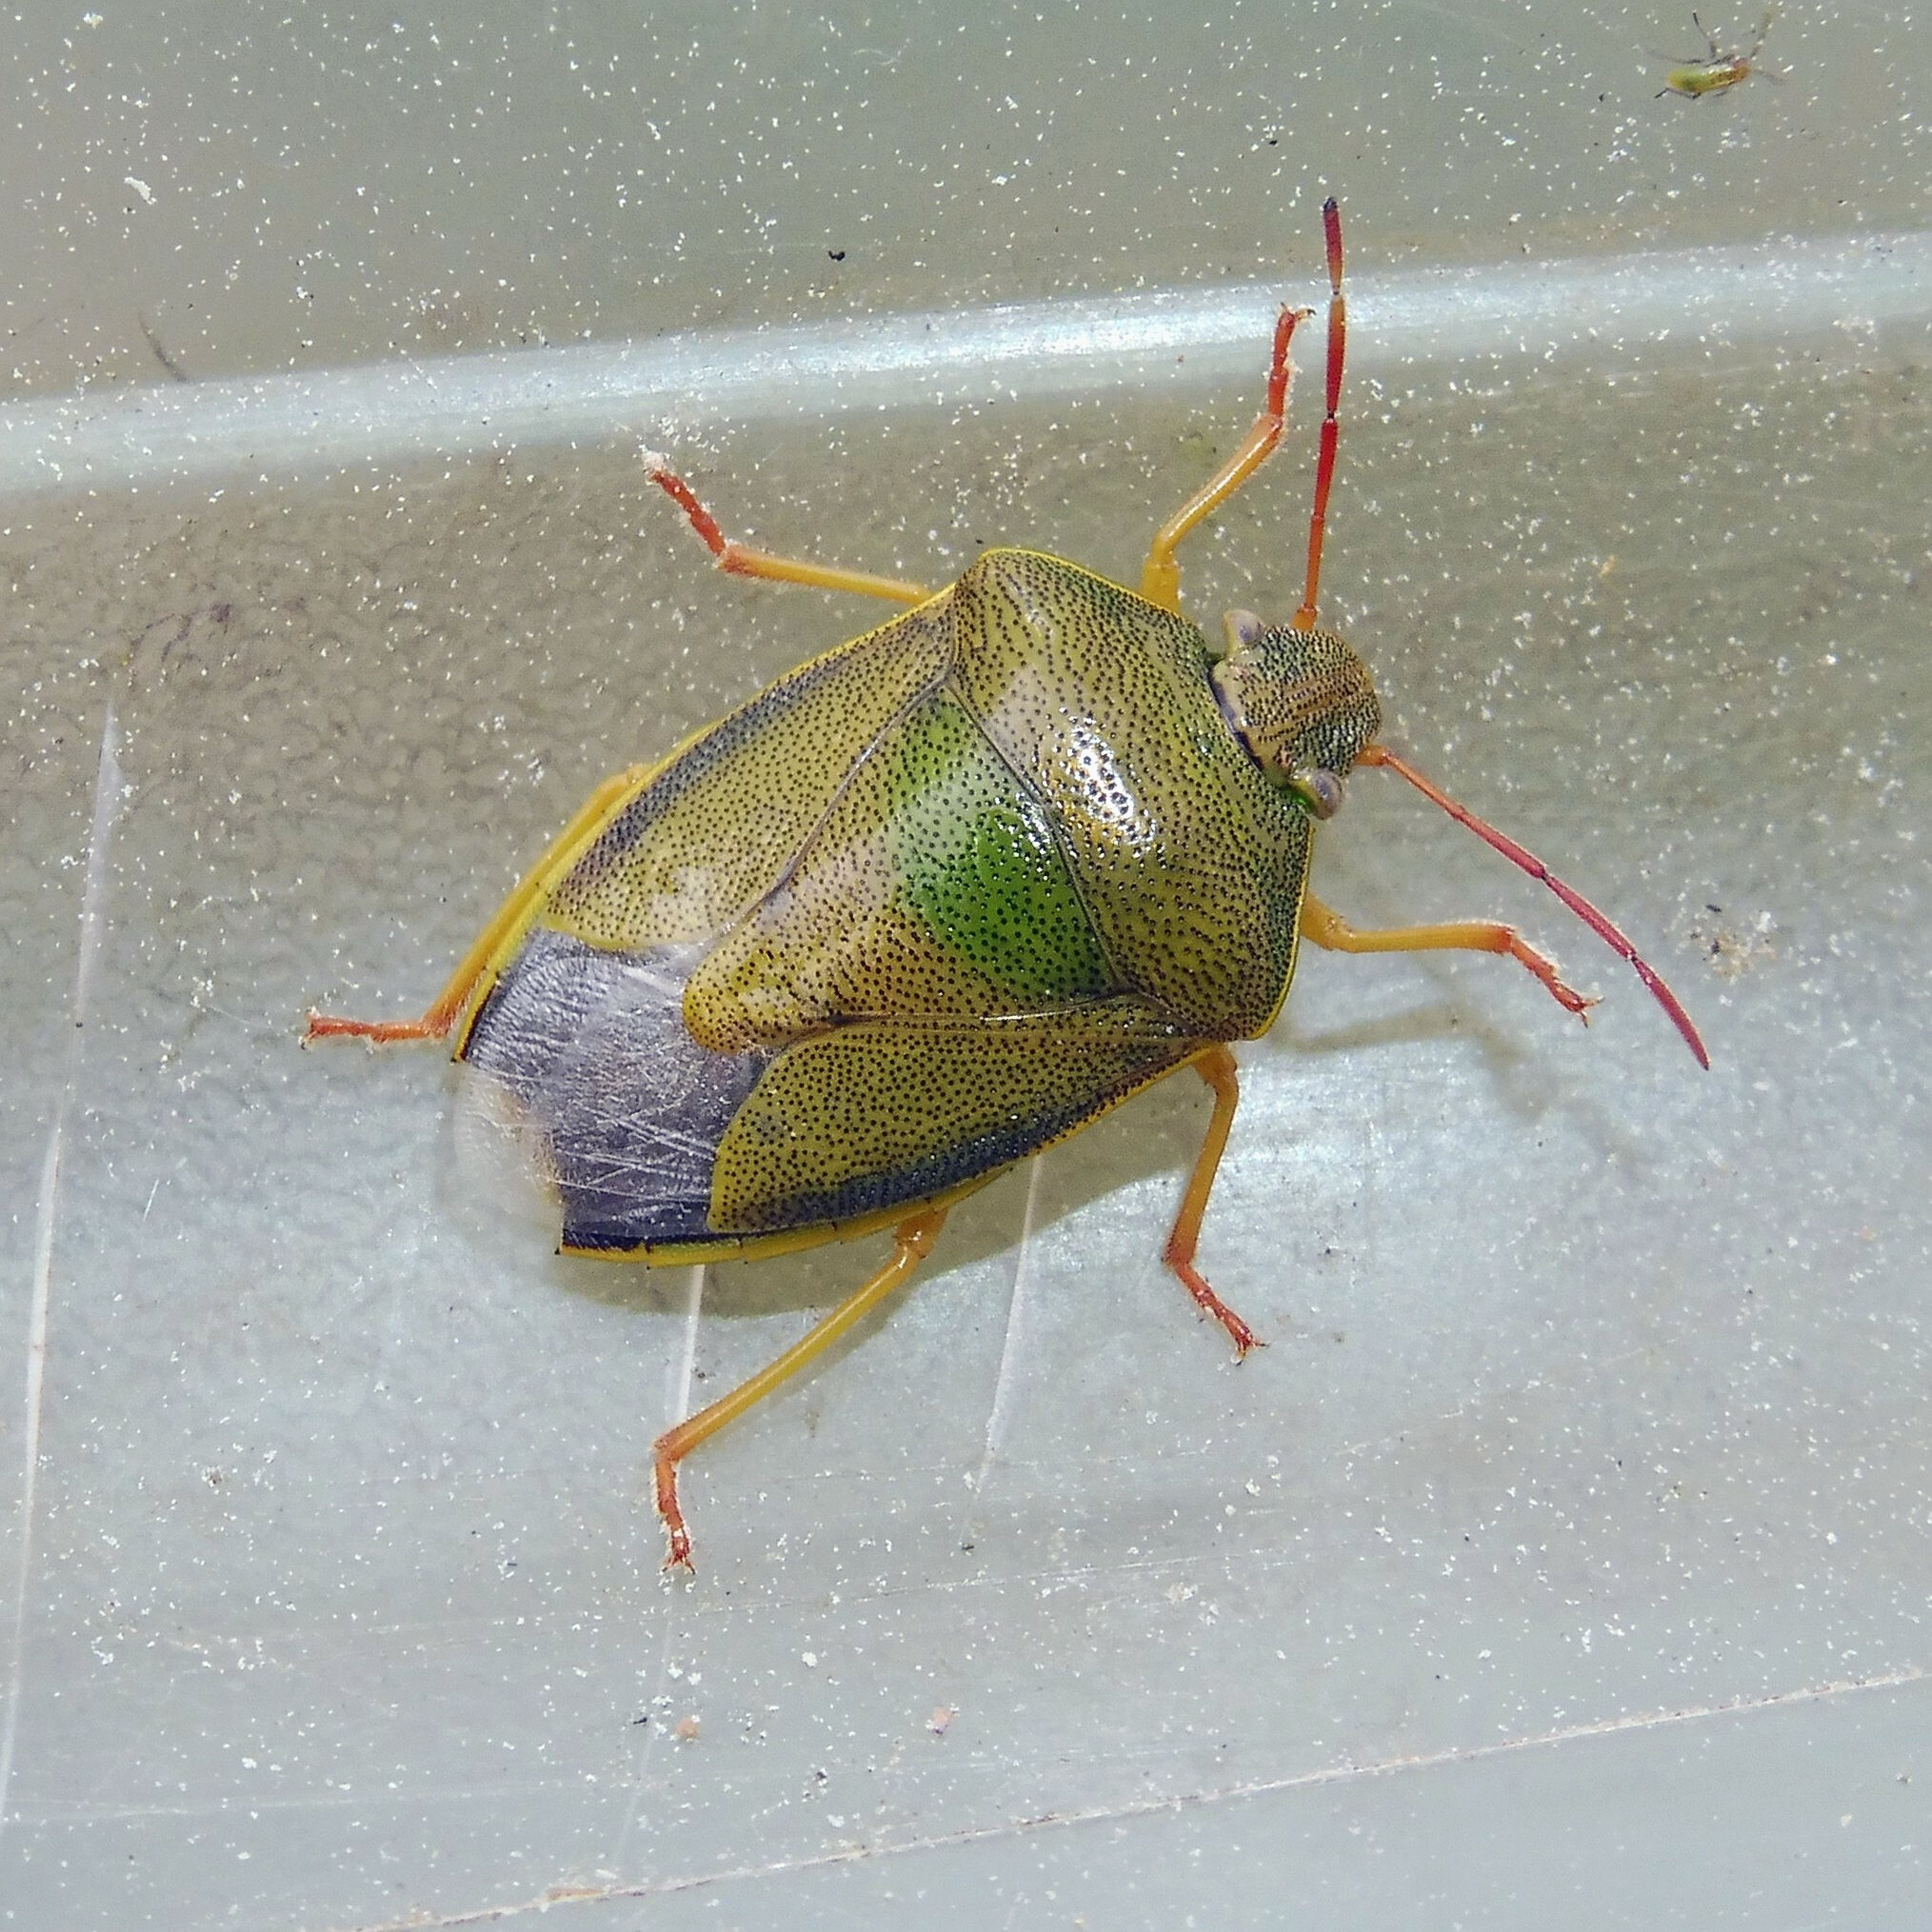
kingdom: Animalia
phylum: Arthropoda
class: Insecta
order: Hemiptera
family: Pentatomidae
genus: Piezodorus
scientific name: Piezodorus lituratus
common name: Stink bug
